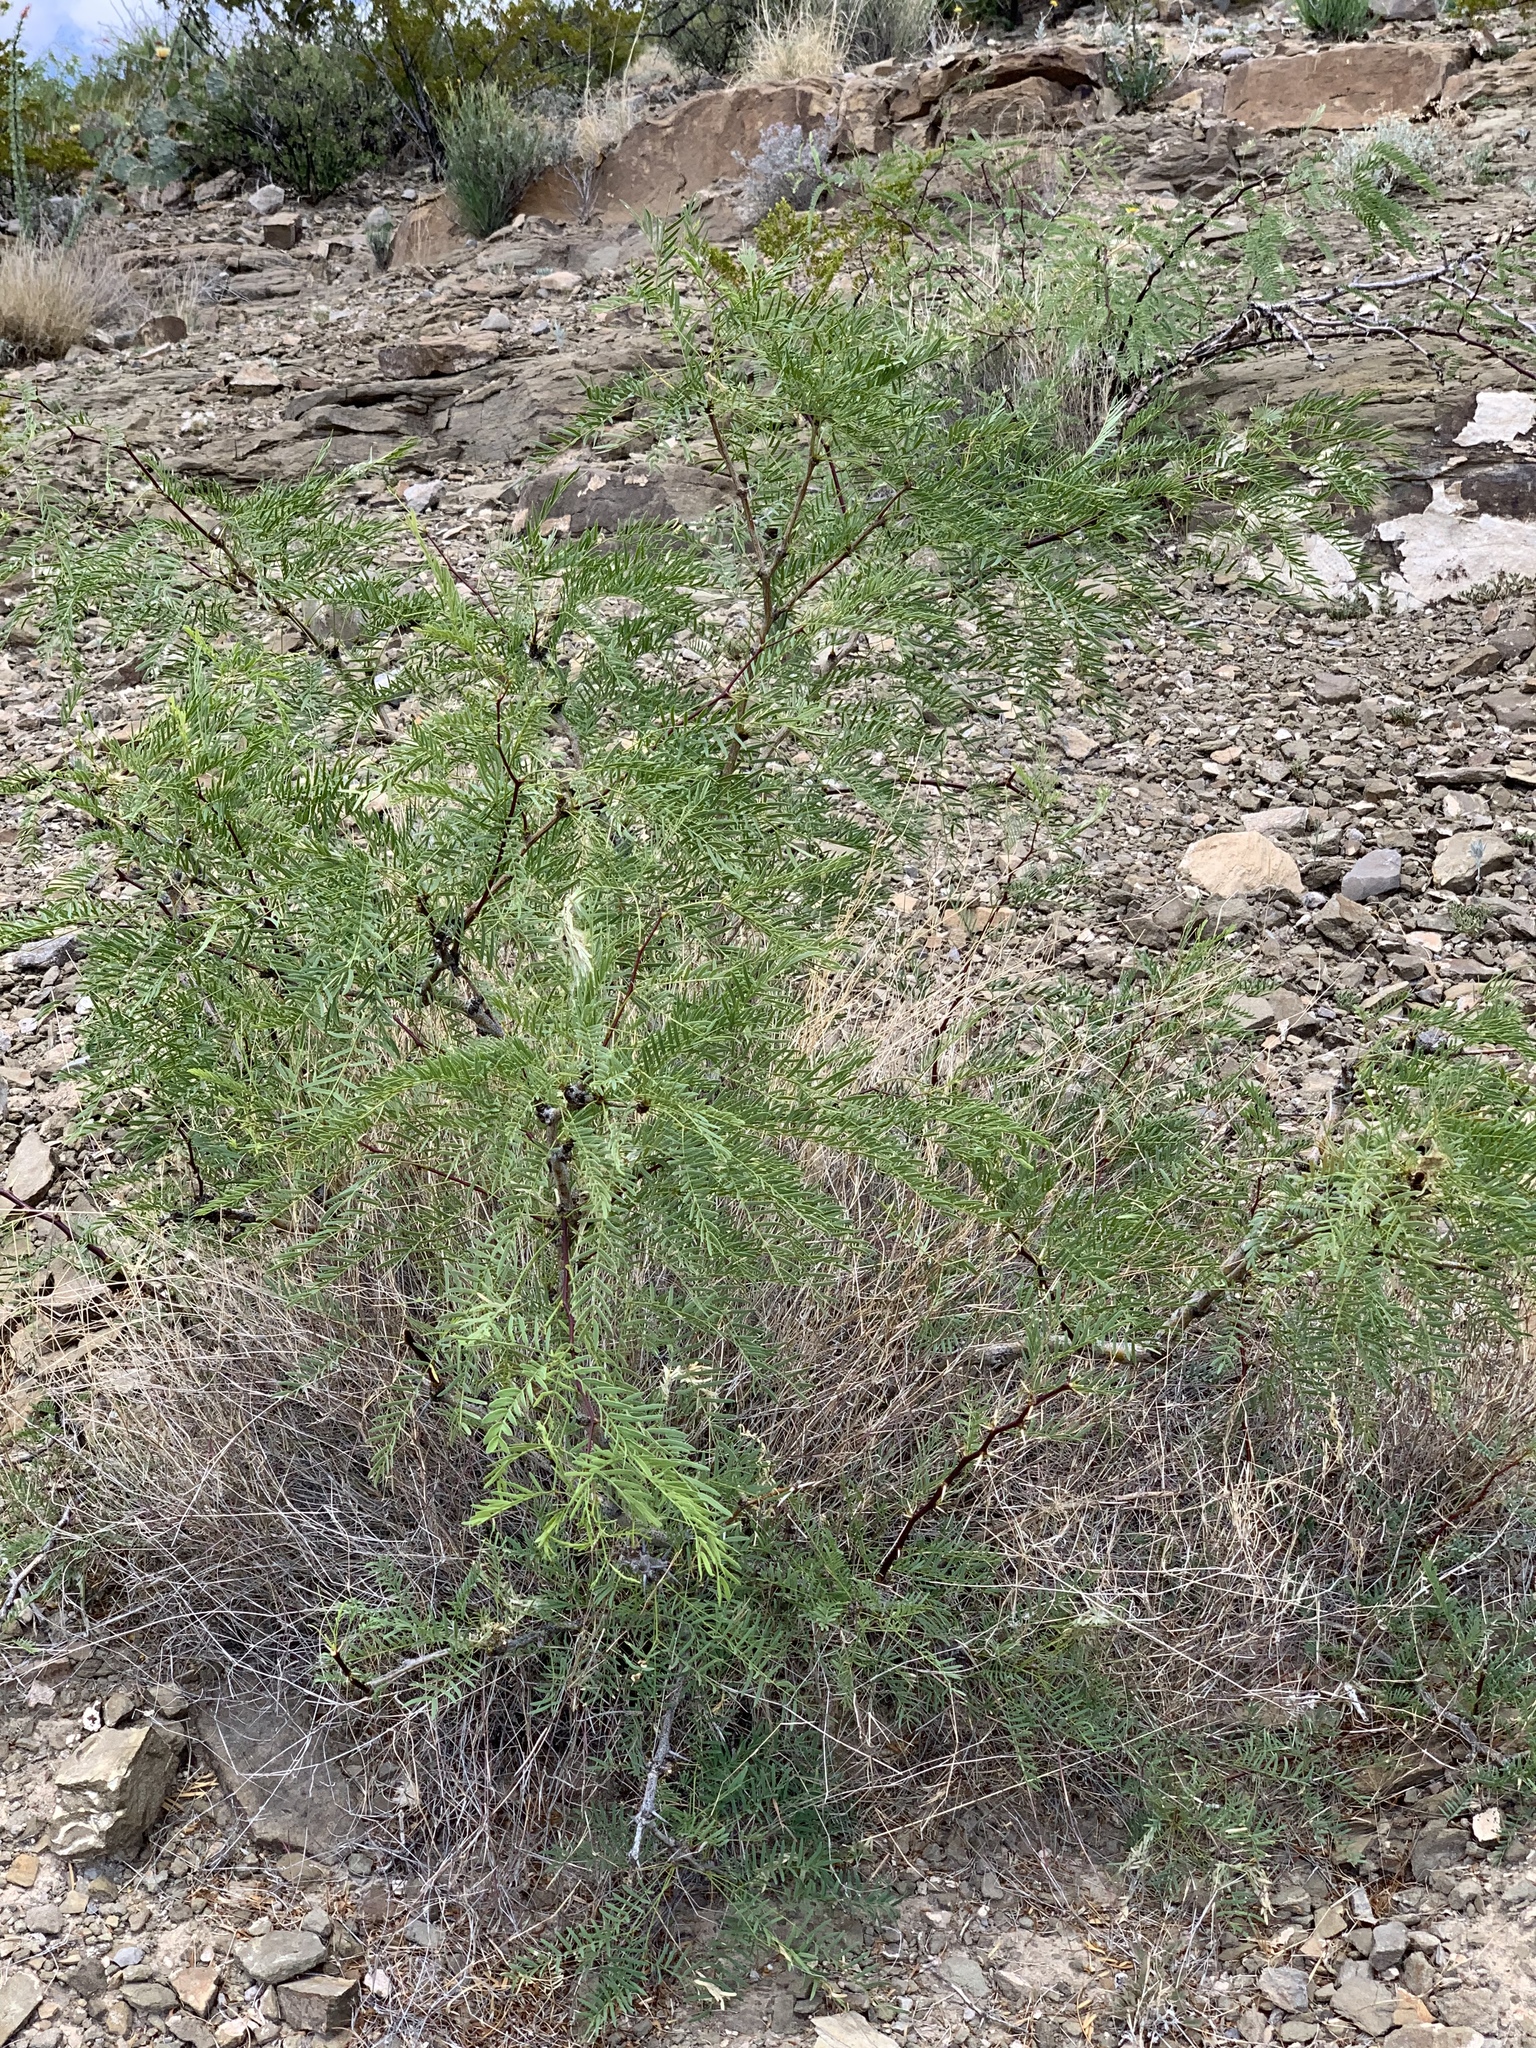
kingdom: Plantae
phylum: Tracheophyta
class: Magnoliopsida
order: Fabales
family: Fabaceae
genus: Prosopis
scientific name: Prosopis glandulosa
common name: Honey mesquite
